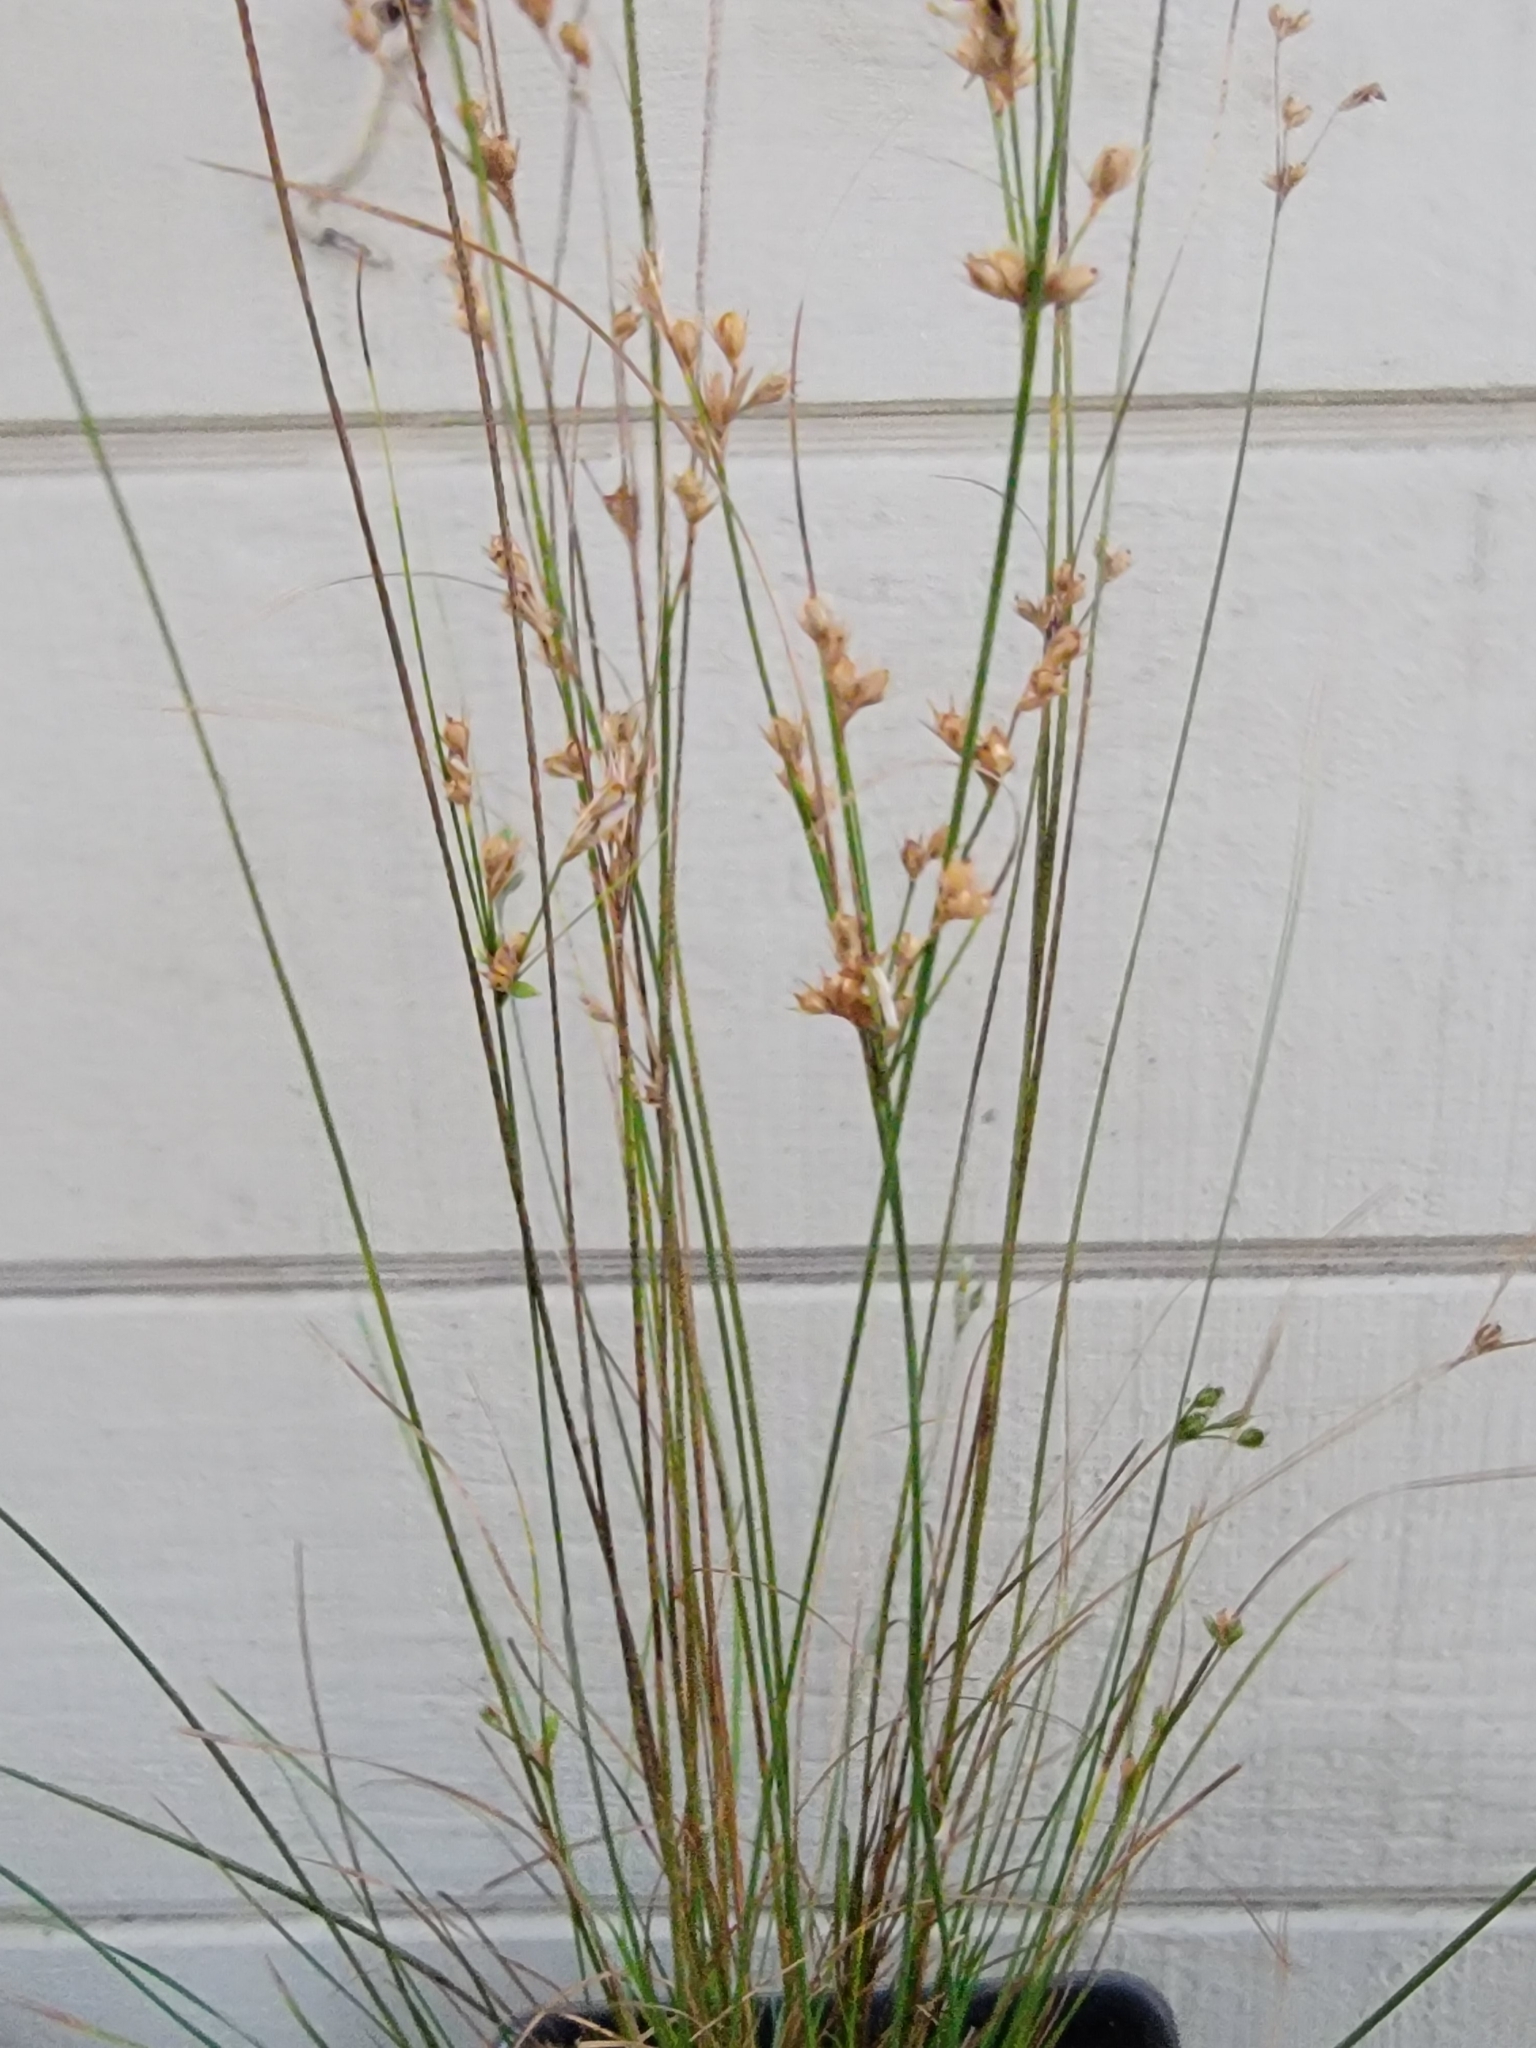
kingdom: Plantae
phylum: Tracheophyta
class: Liliopsida
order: Poales
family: Juncaceae
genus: Juncus
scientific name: Juncus tenuis
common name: Slender rush
